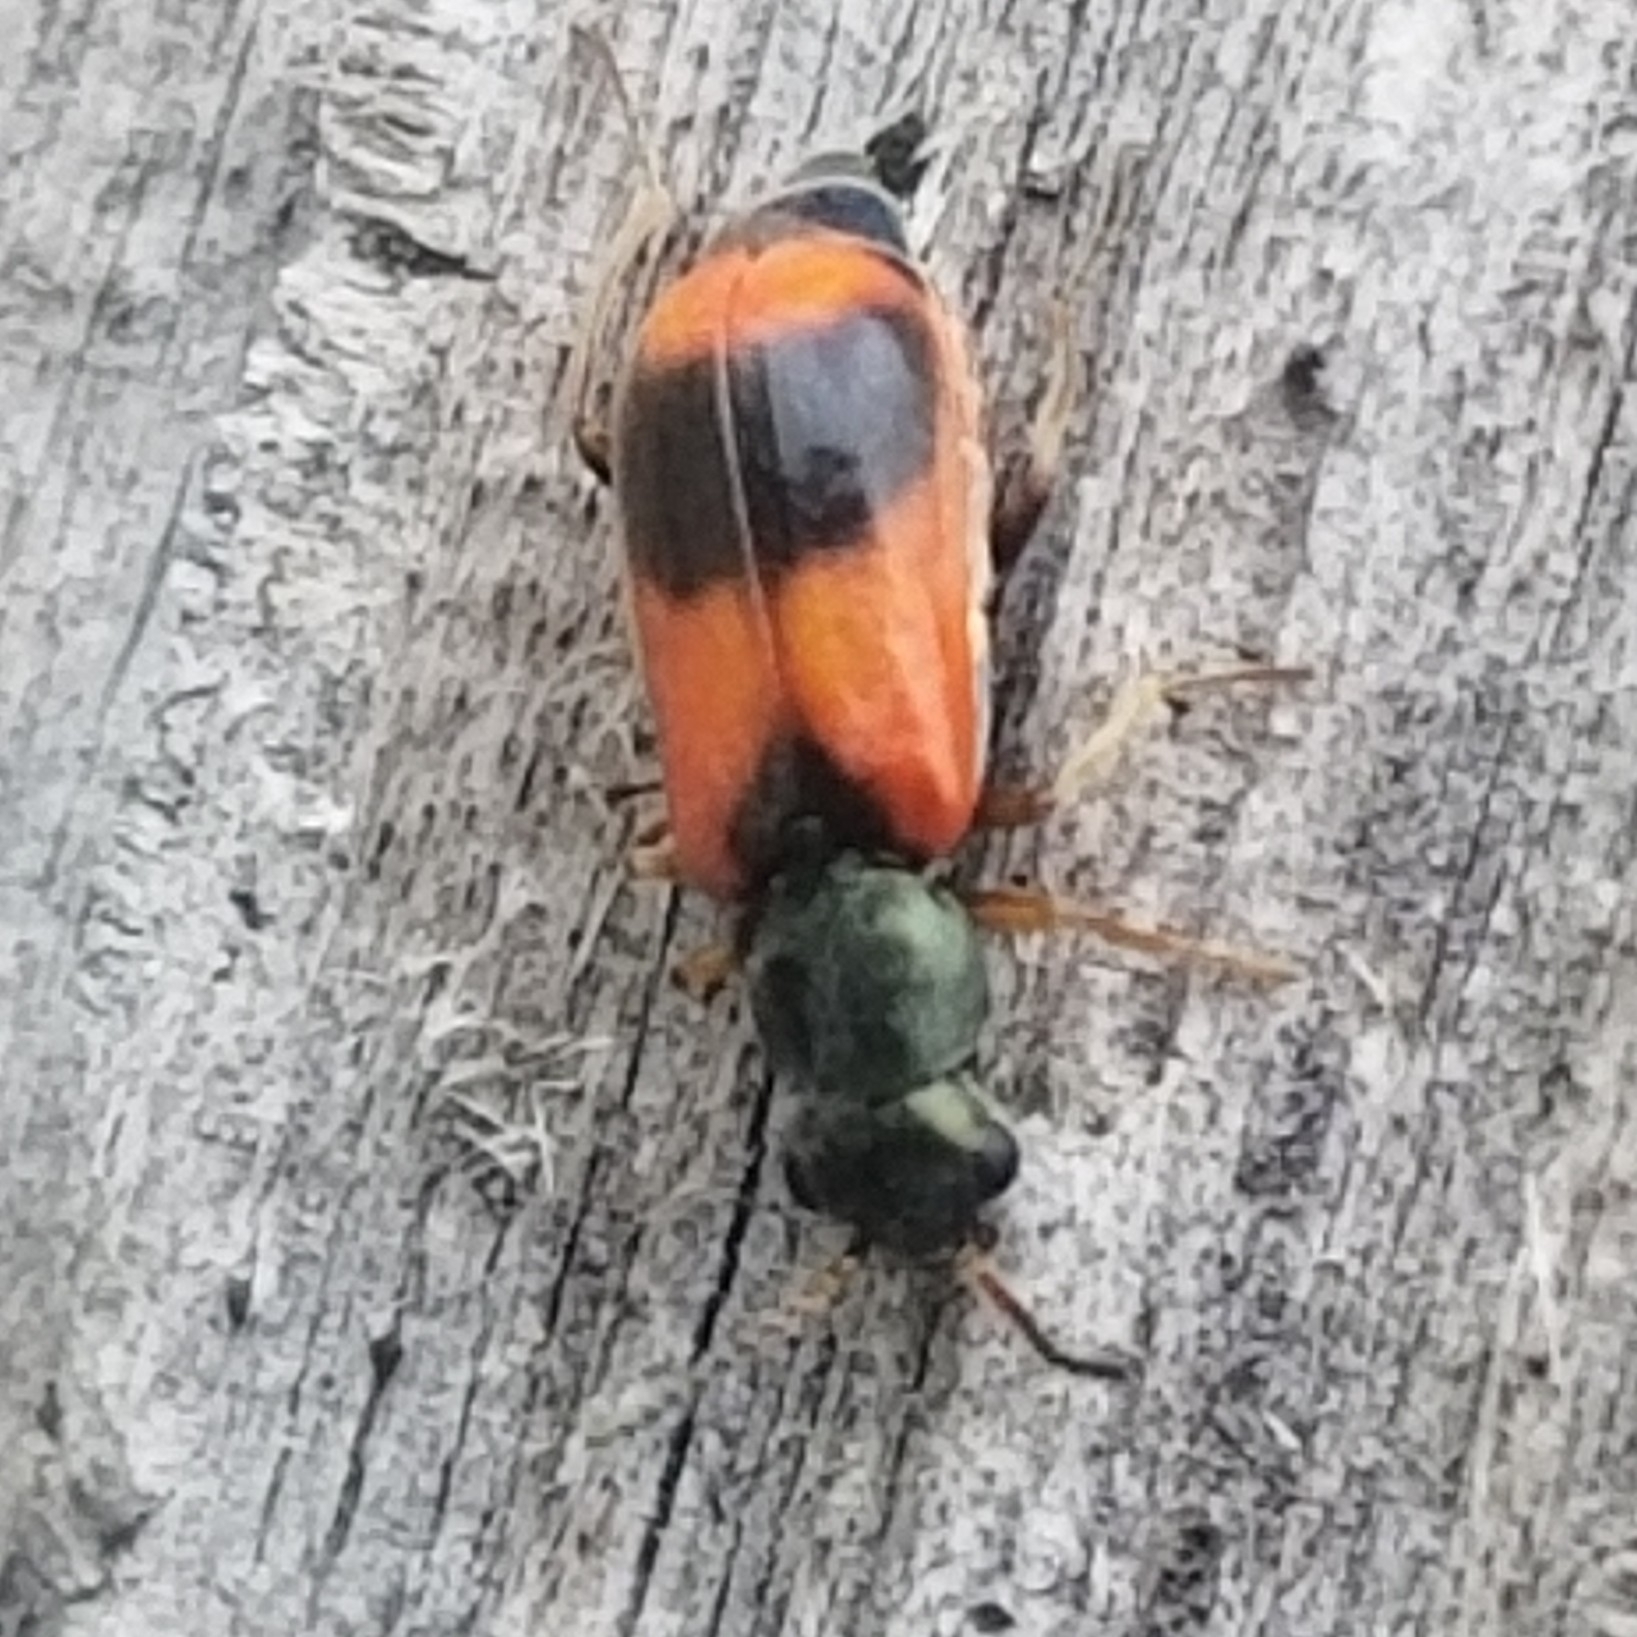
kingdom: Animalia
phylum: Arthropoda
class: Insecta
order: Coleoptera
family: Melyridae
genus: Anthocomus
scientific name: Anthocomus equestris
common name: Black-banded soft-winged flower beetle
